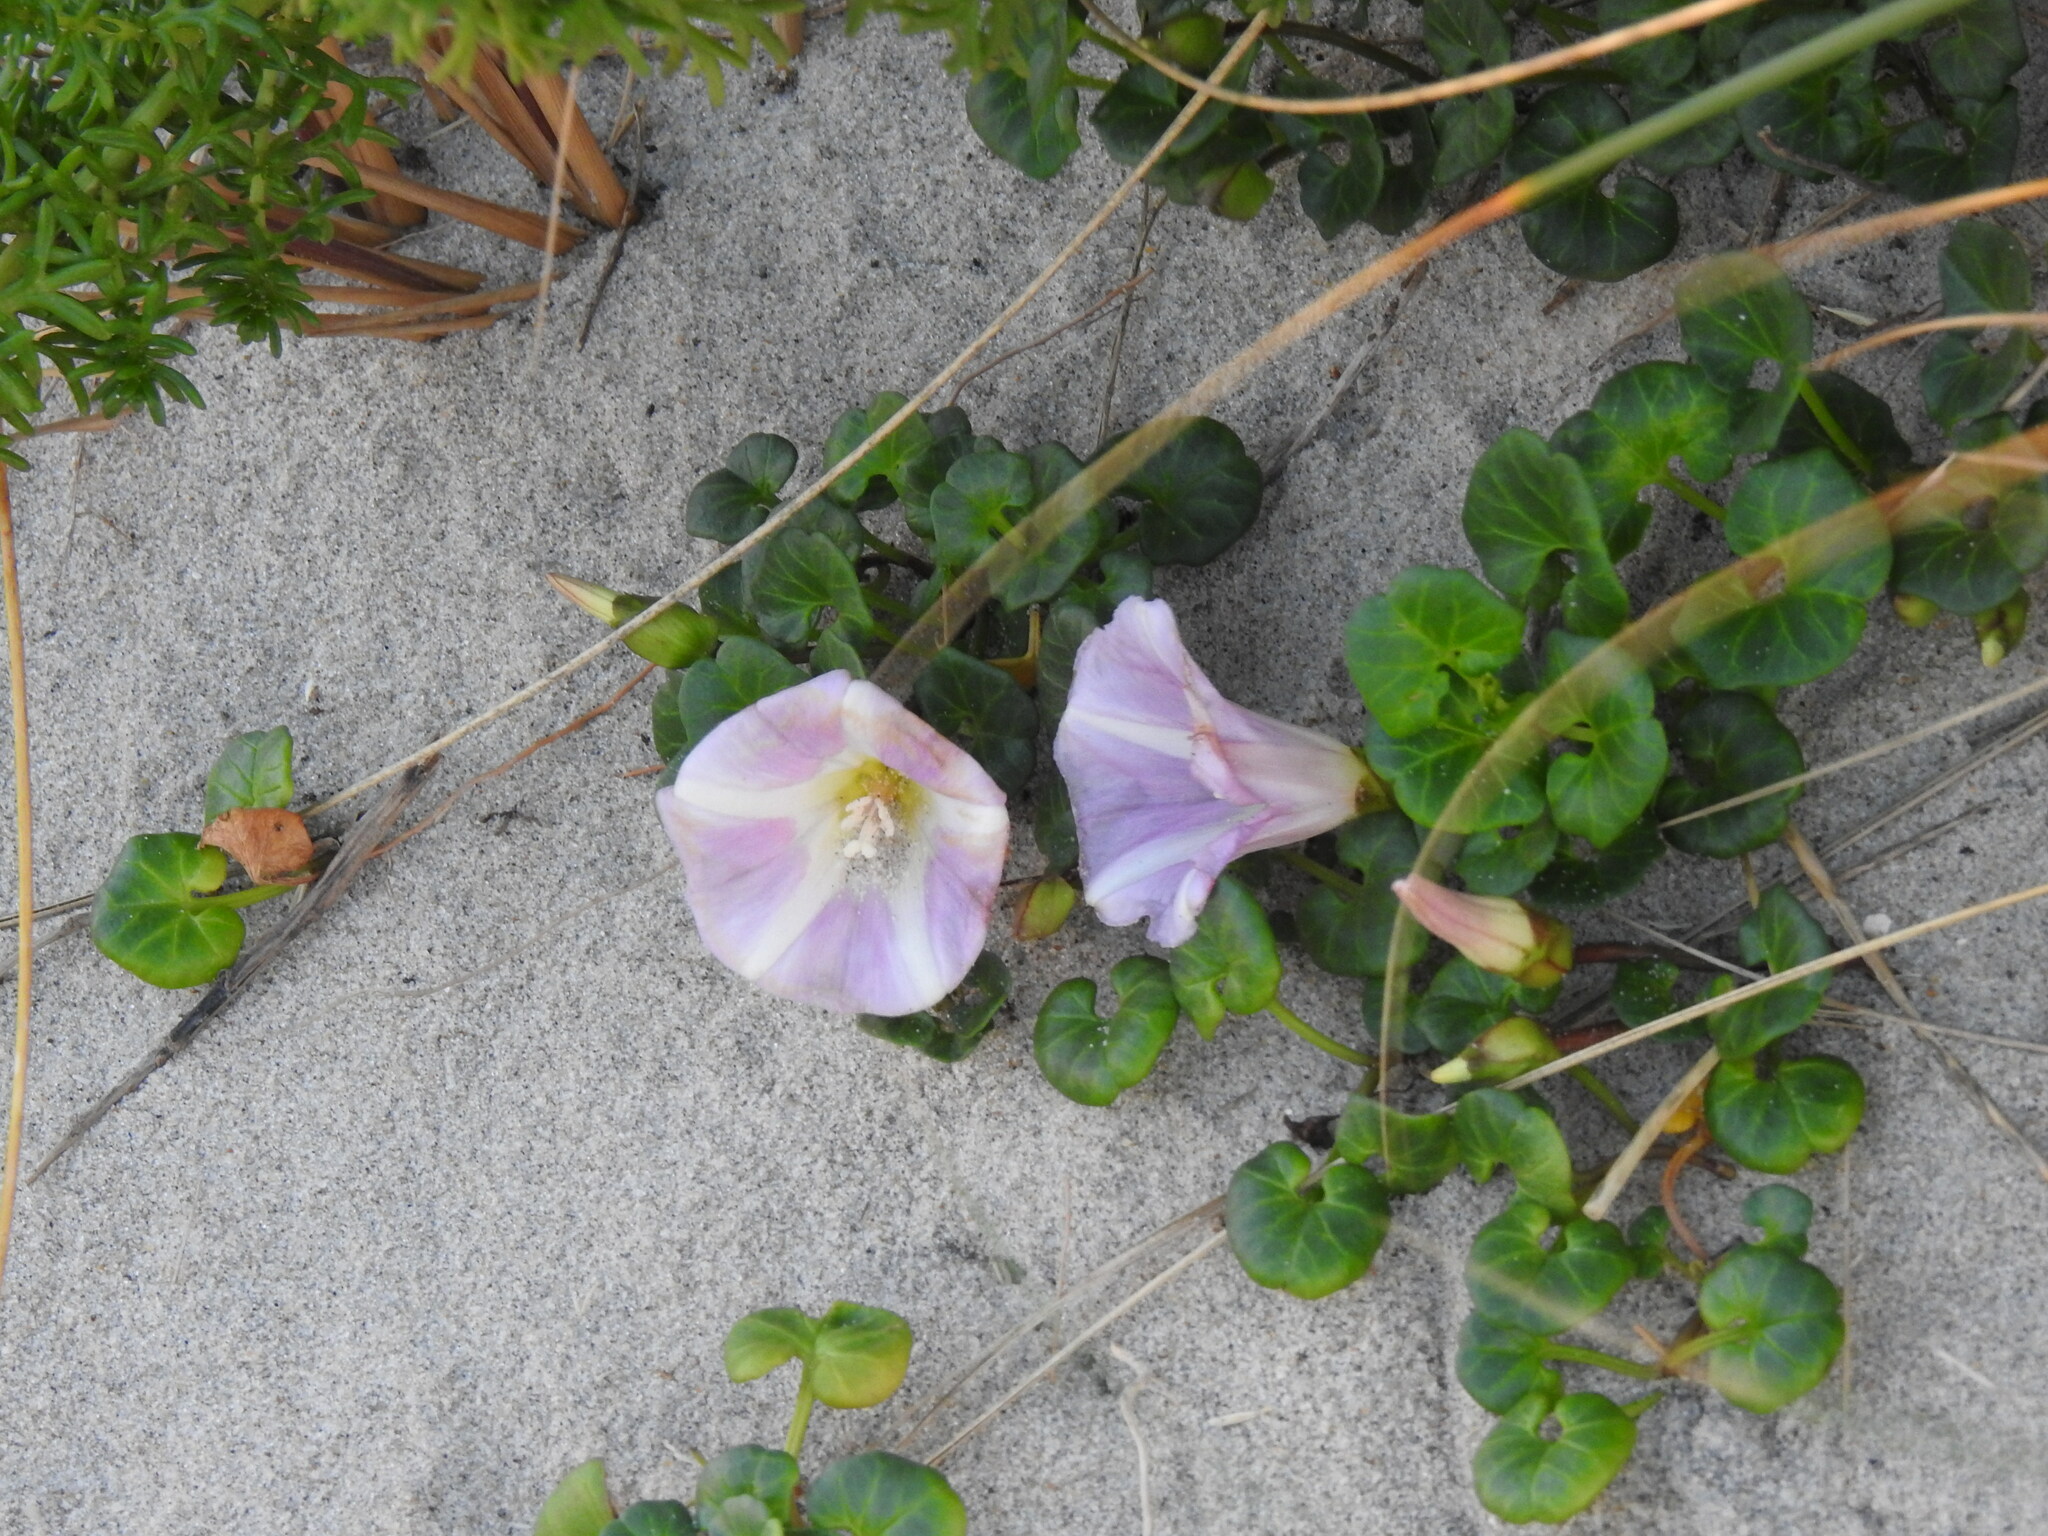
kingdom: Plantae
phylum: Tracheophyta
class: Magnoliopsida
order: Solanales
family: Convolvulaceae
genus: Calystegia
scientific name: Calystegia soldanella
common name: Sea bindweed
